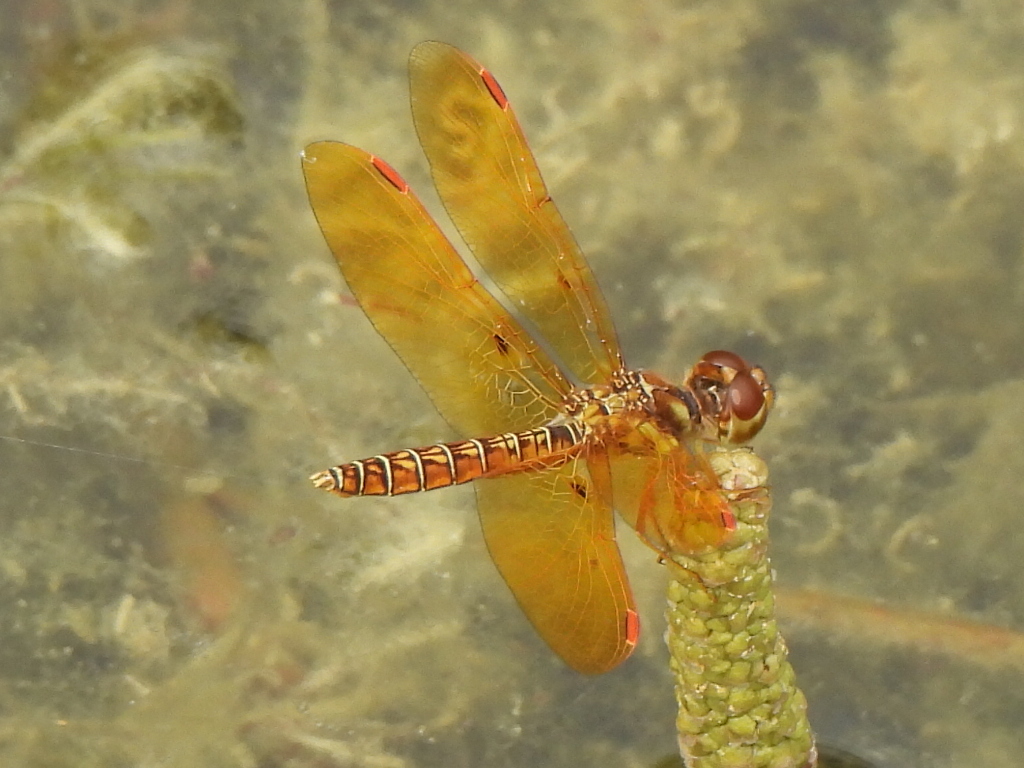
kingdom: Animalia
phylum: Arthropoda
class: Insecta
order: Odonata
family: Libellulidae
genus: Perithemis
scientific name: Perithemis tenera
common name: Eastern amberwing
